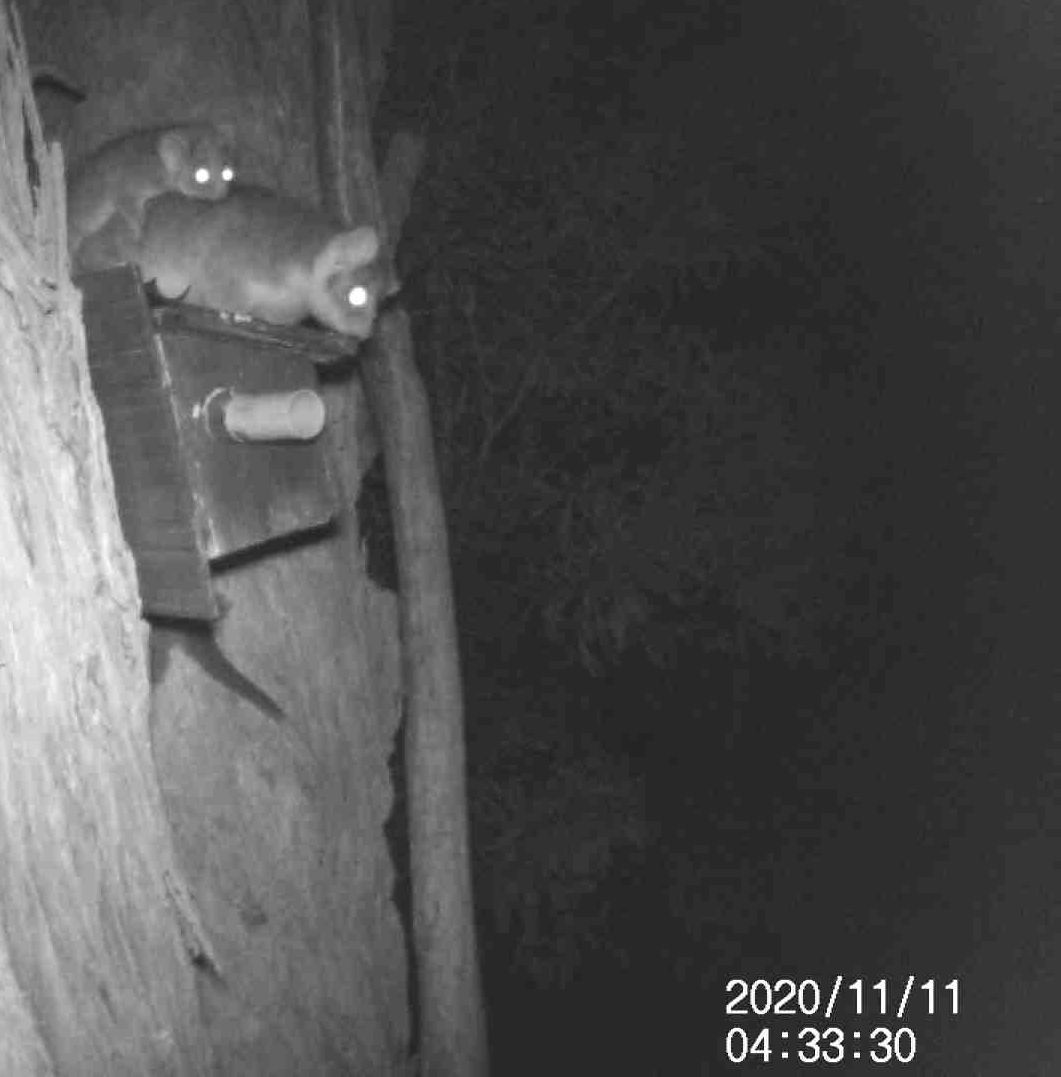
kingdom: Animalia
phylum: Chordata
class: Mammalia
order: Diprotodontia
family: Pseudocheiridae
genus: Pseudocheirus
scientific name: Pseudocheirus peregrinus
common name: Common ringtail possum
